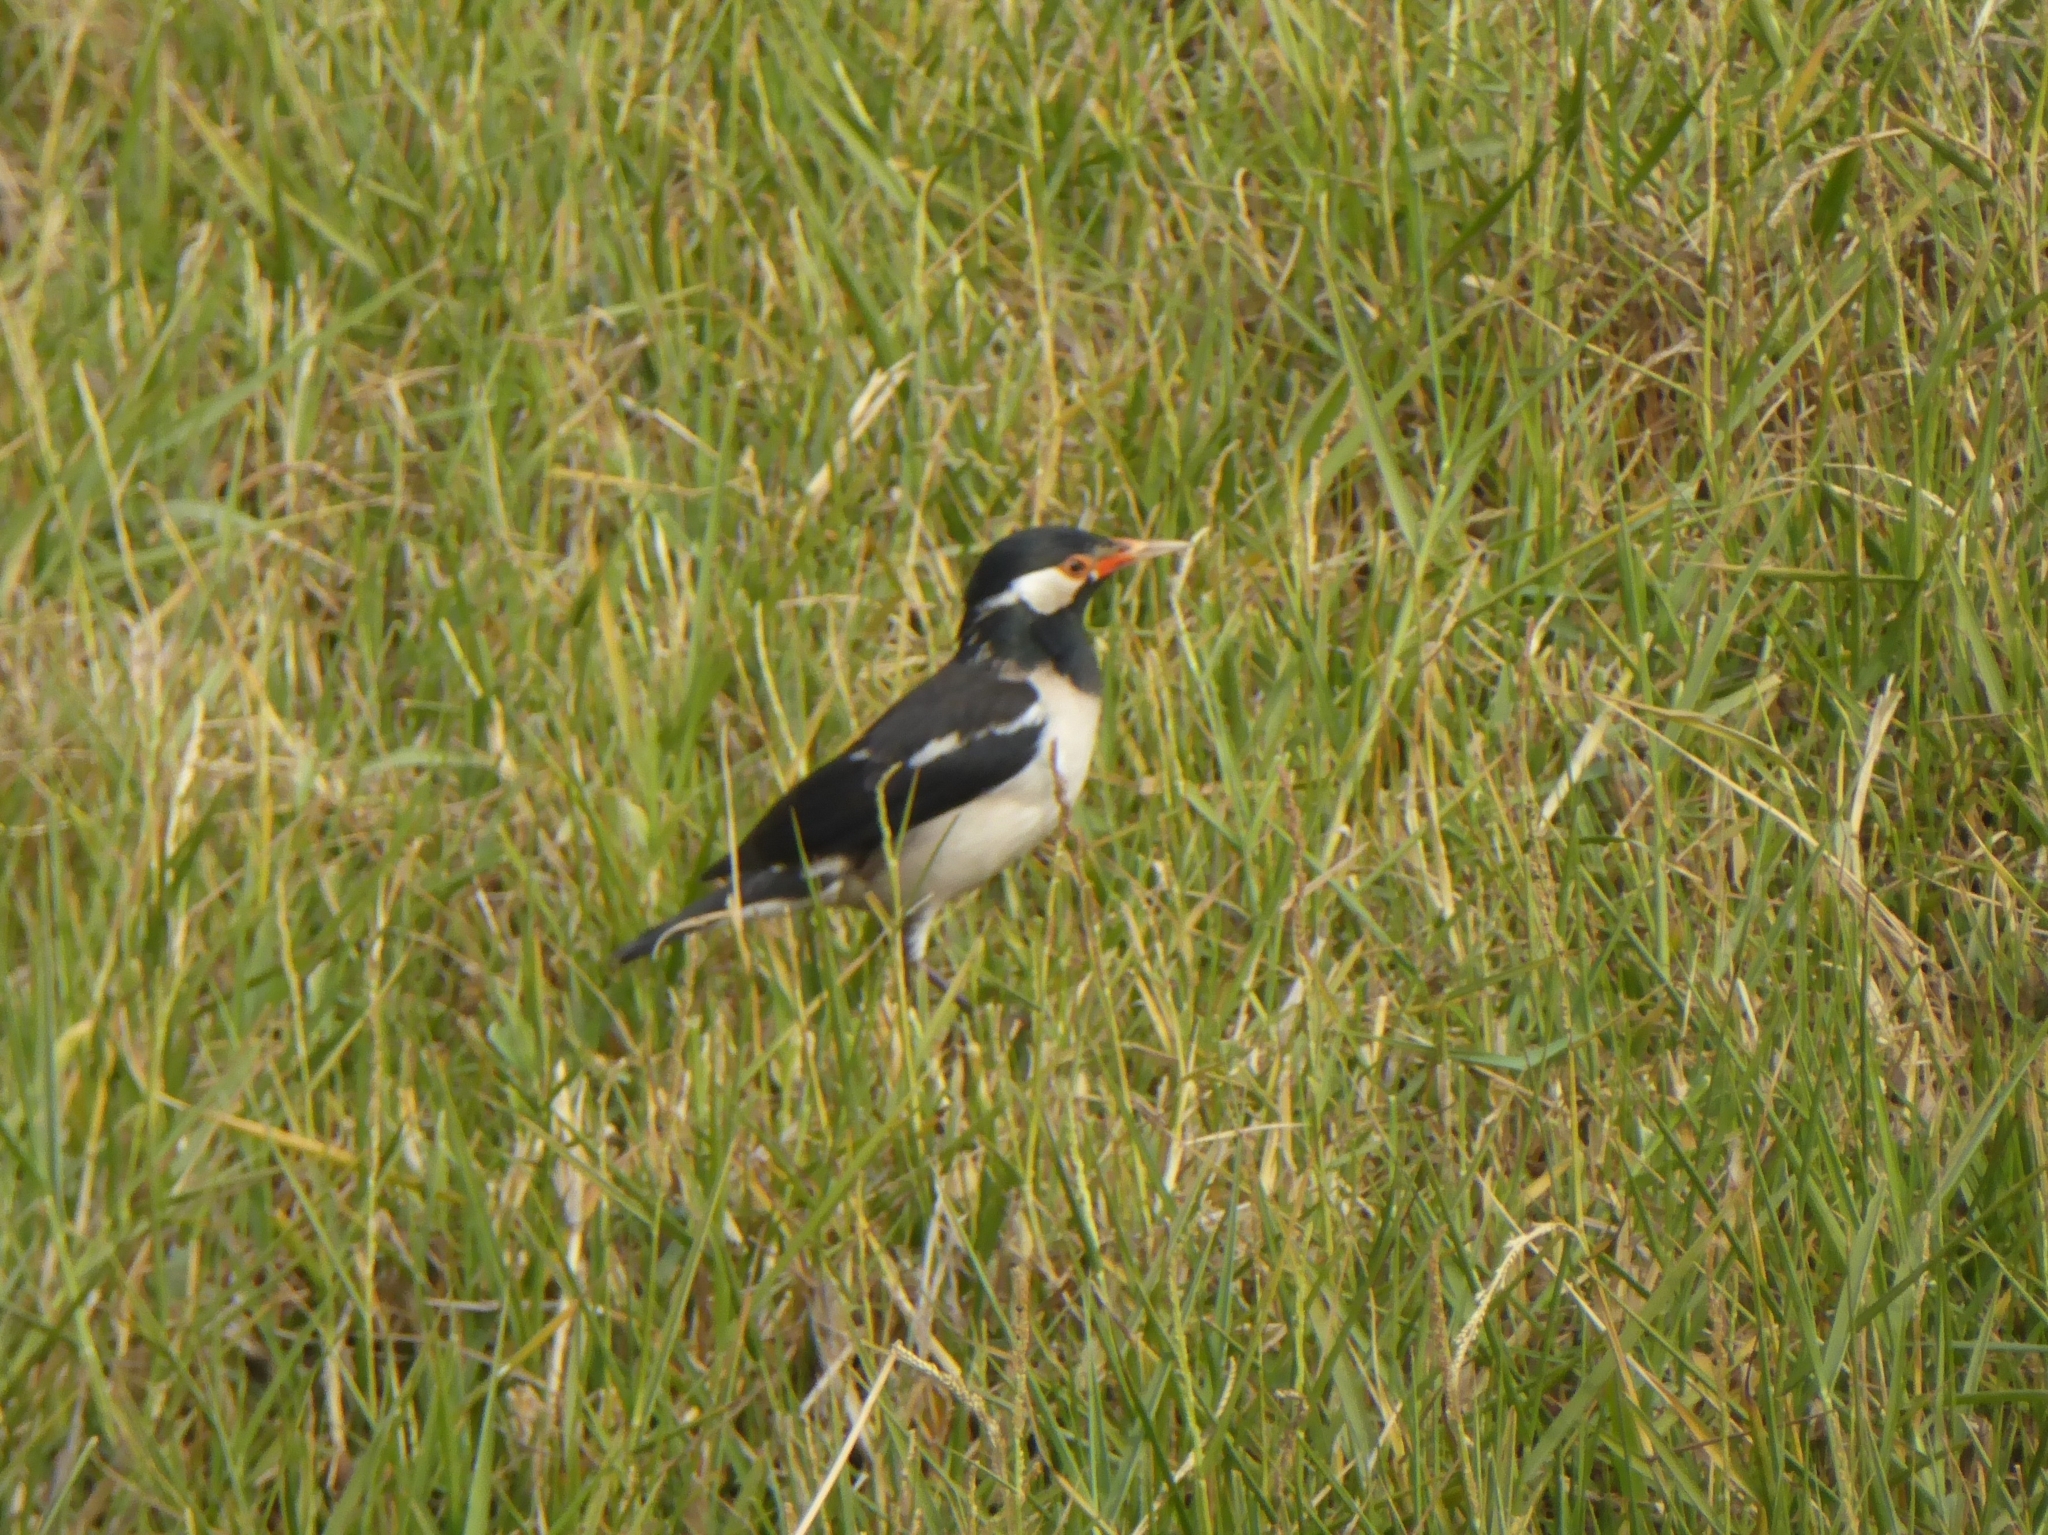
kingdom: Animalia
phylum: Chordata
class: Aves
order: Passeriformes
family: Sturnidae
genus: Gracupica
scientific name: Gracupica contra
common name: Pied myna
